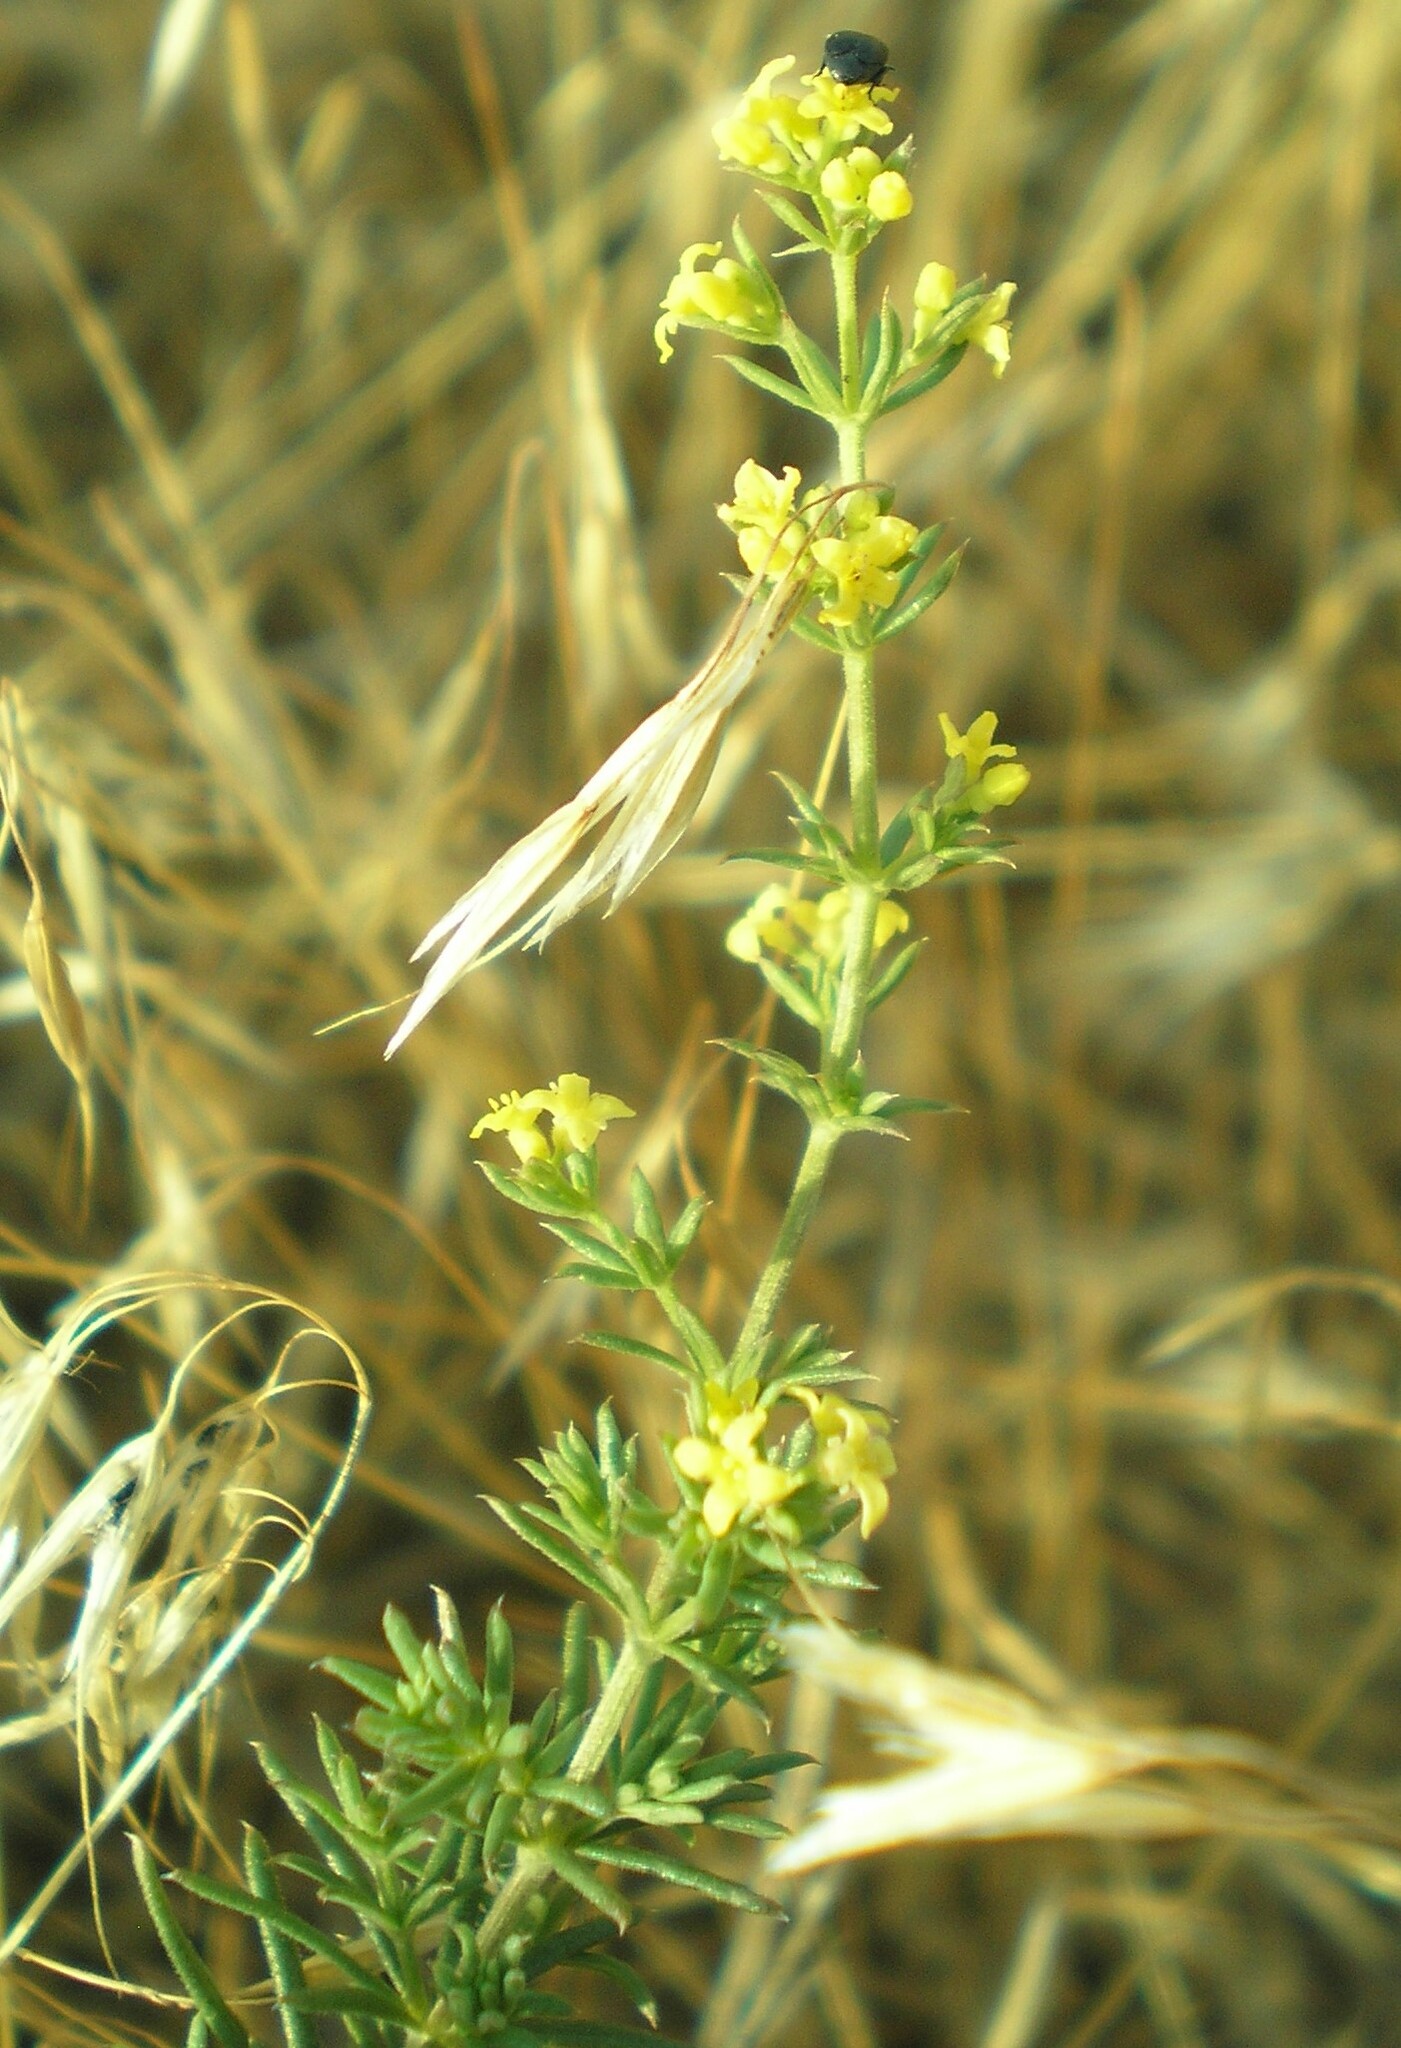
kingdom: Plantae
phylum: Tracheophyta
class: Magnoliopsida
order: Gentianales
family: Rubiaceae
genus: Galium
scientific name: Galium verum
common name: Lady's bedstraw
